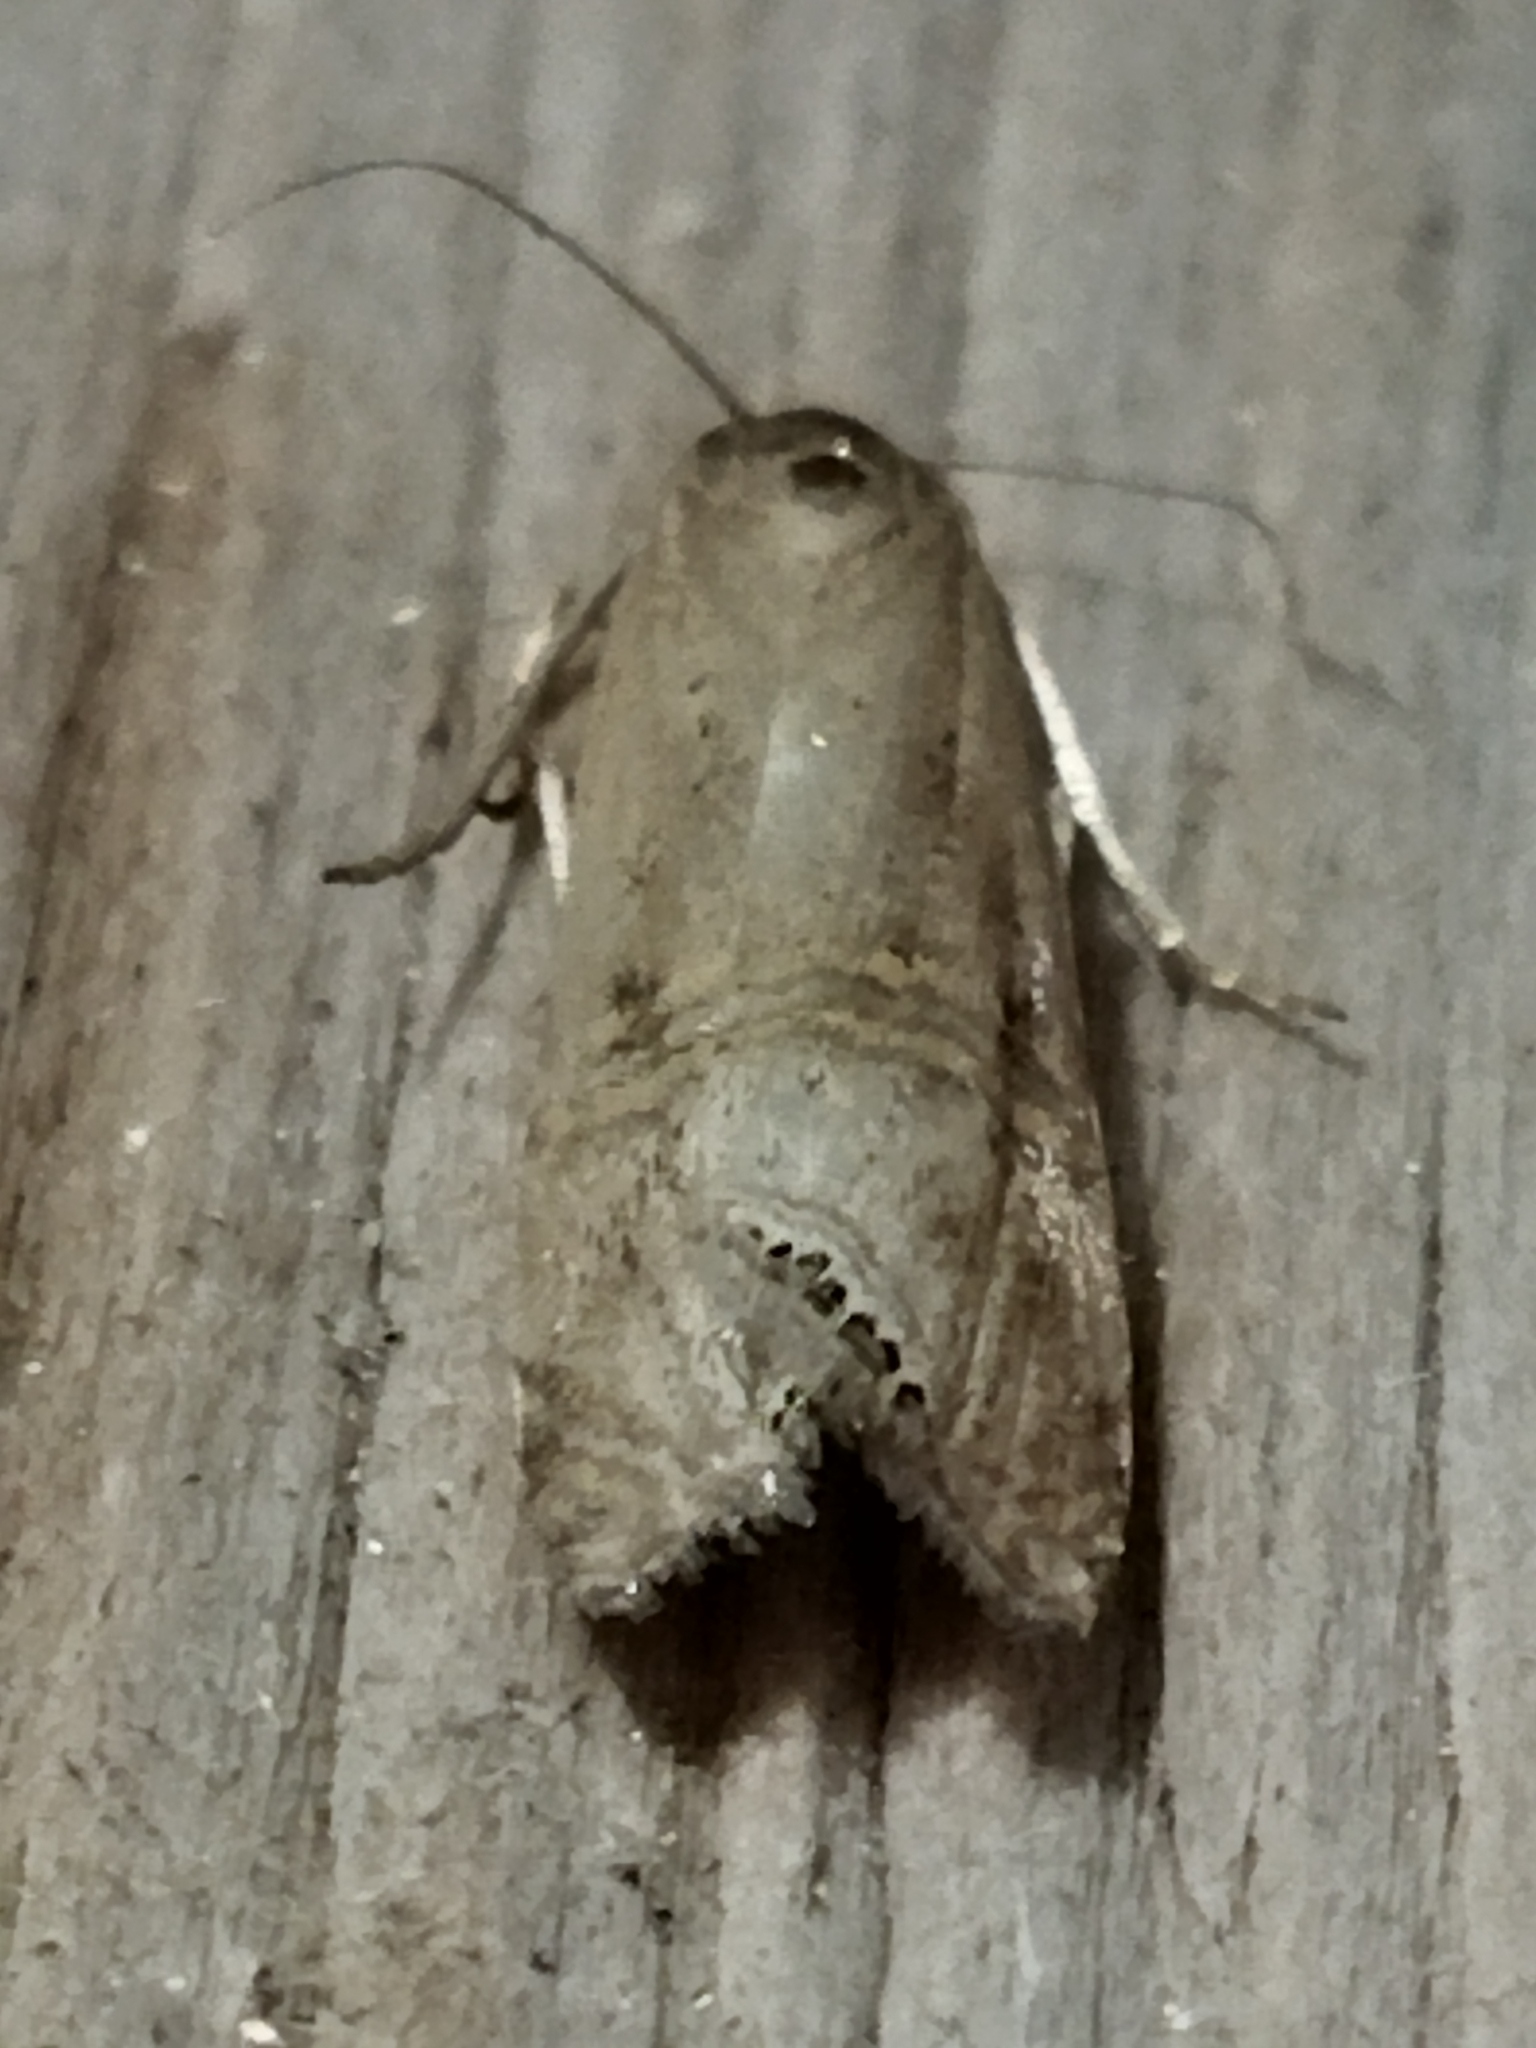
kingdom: Animalia
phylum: Arthropoda
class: Insecta
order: Lepidoptera
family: Crambidae
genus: Euchromius
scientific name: Euchromius ocellea
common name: Necklace veneer moth
